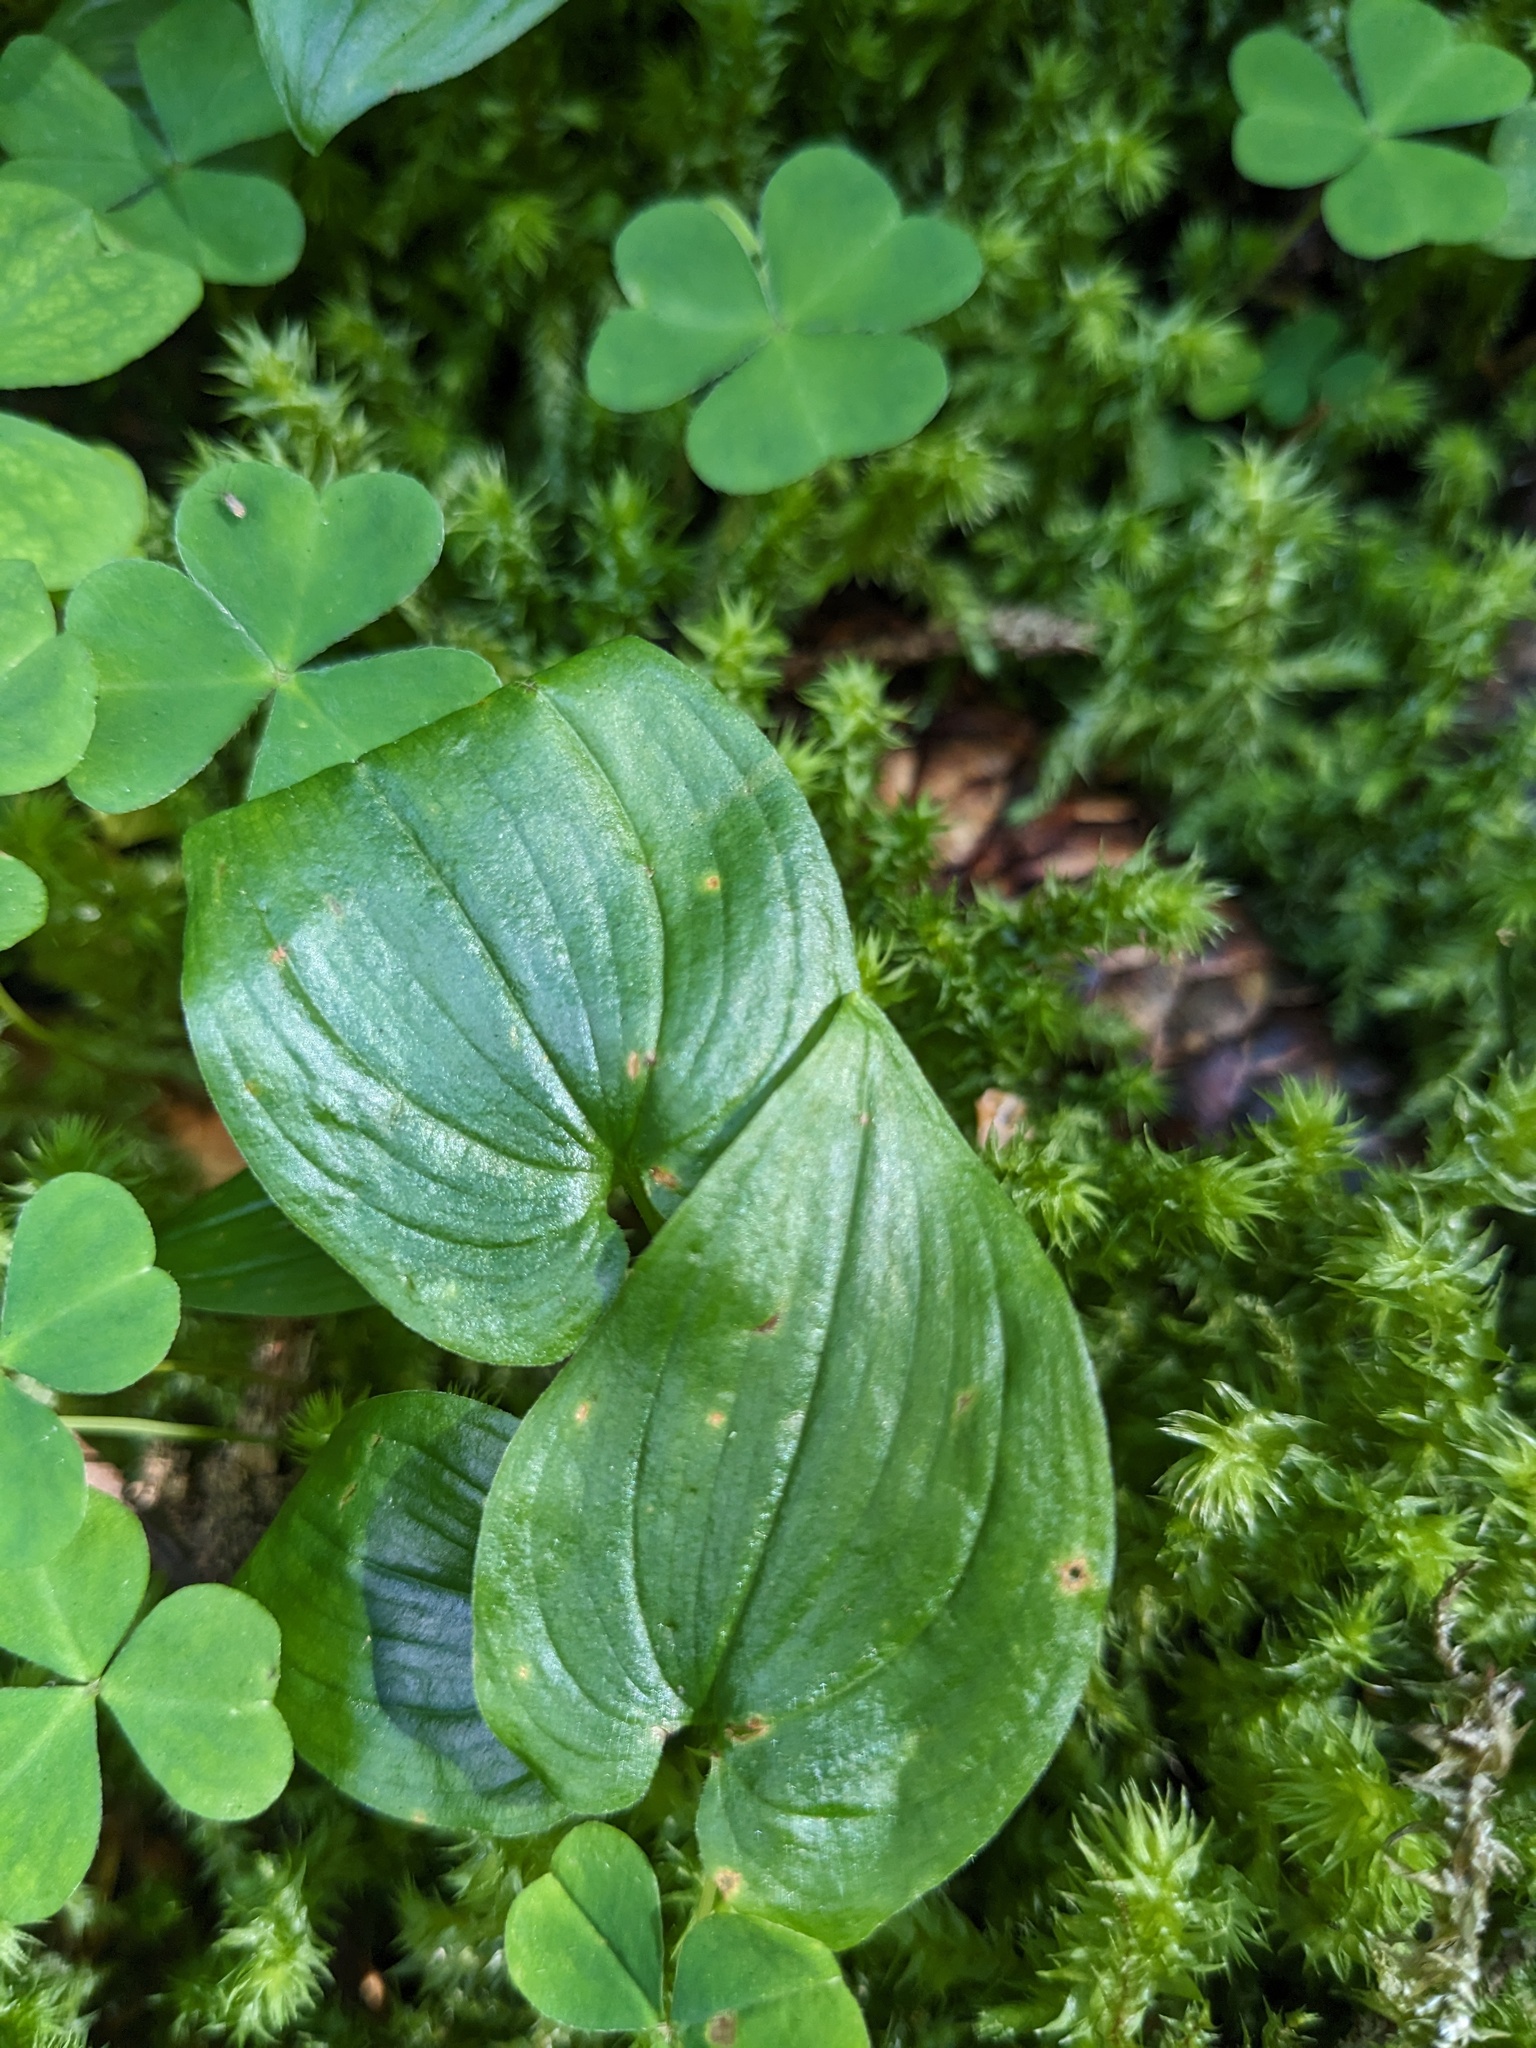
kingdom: Plantae
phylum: Tracheophyta
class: Liliopsida
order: Asparagales
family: Asparagaceae
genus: Maianthemum
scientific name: Maianthemum bifolium
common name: May lily
